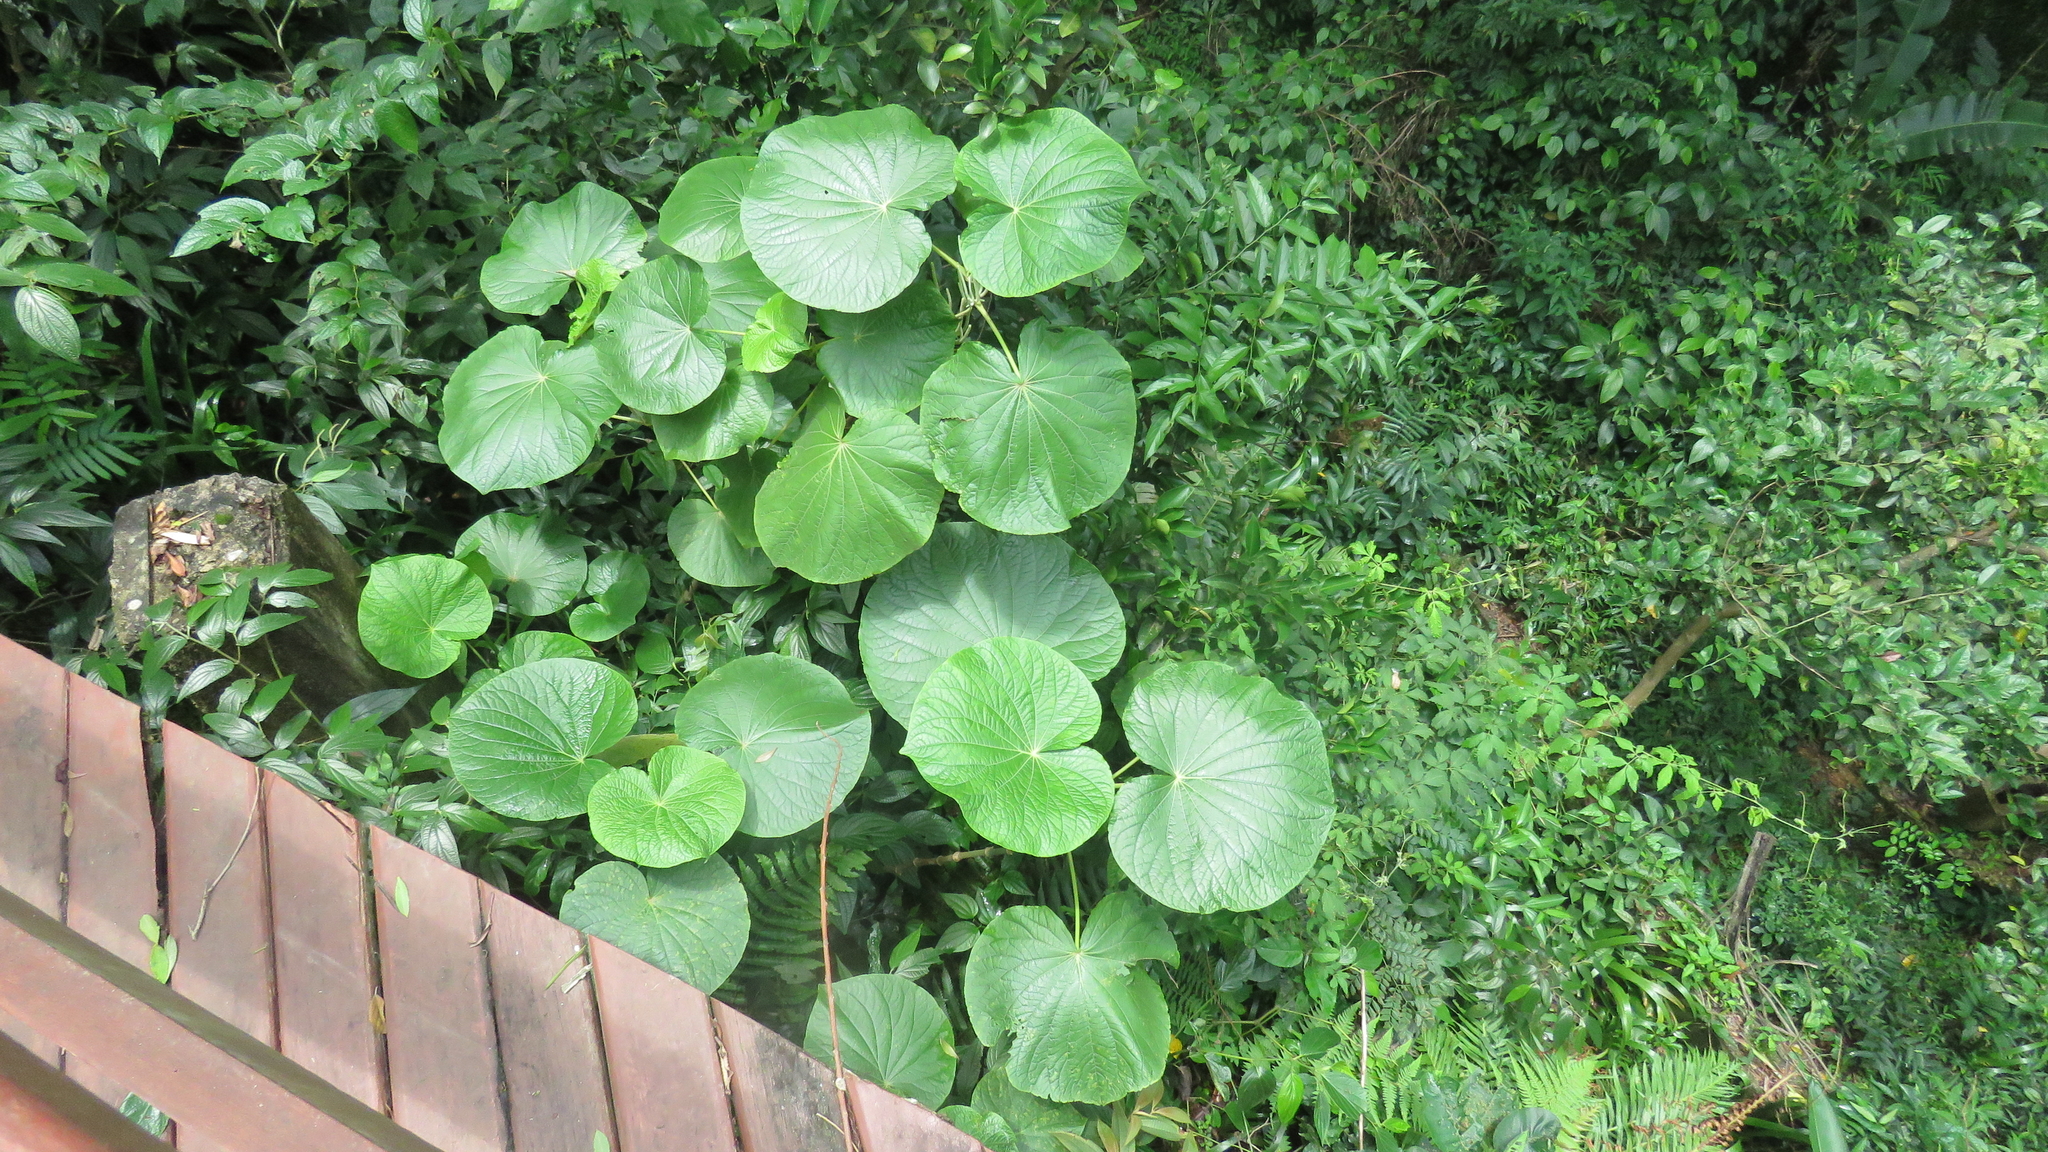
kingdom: Plantae
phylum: Tracheophyta
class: Magnoliopsida
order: Piperales
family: Piperaceae
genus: Piper
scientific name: Piper umbellatum
